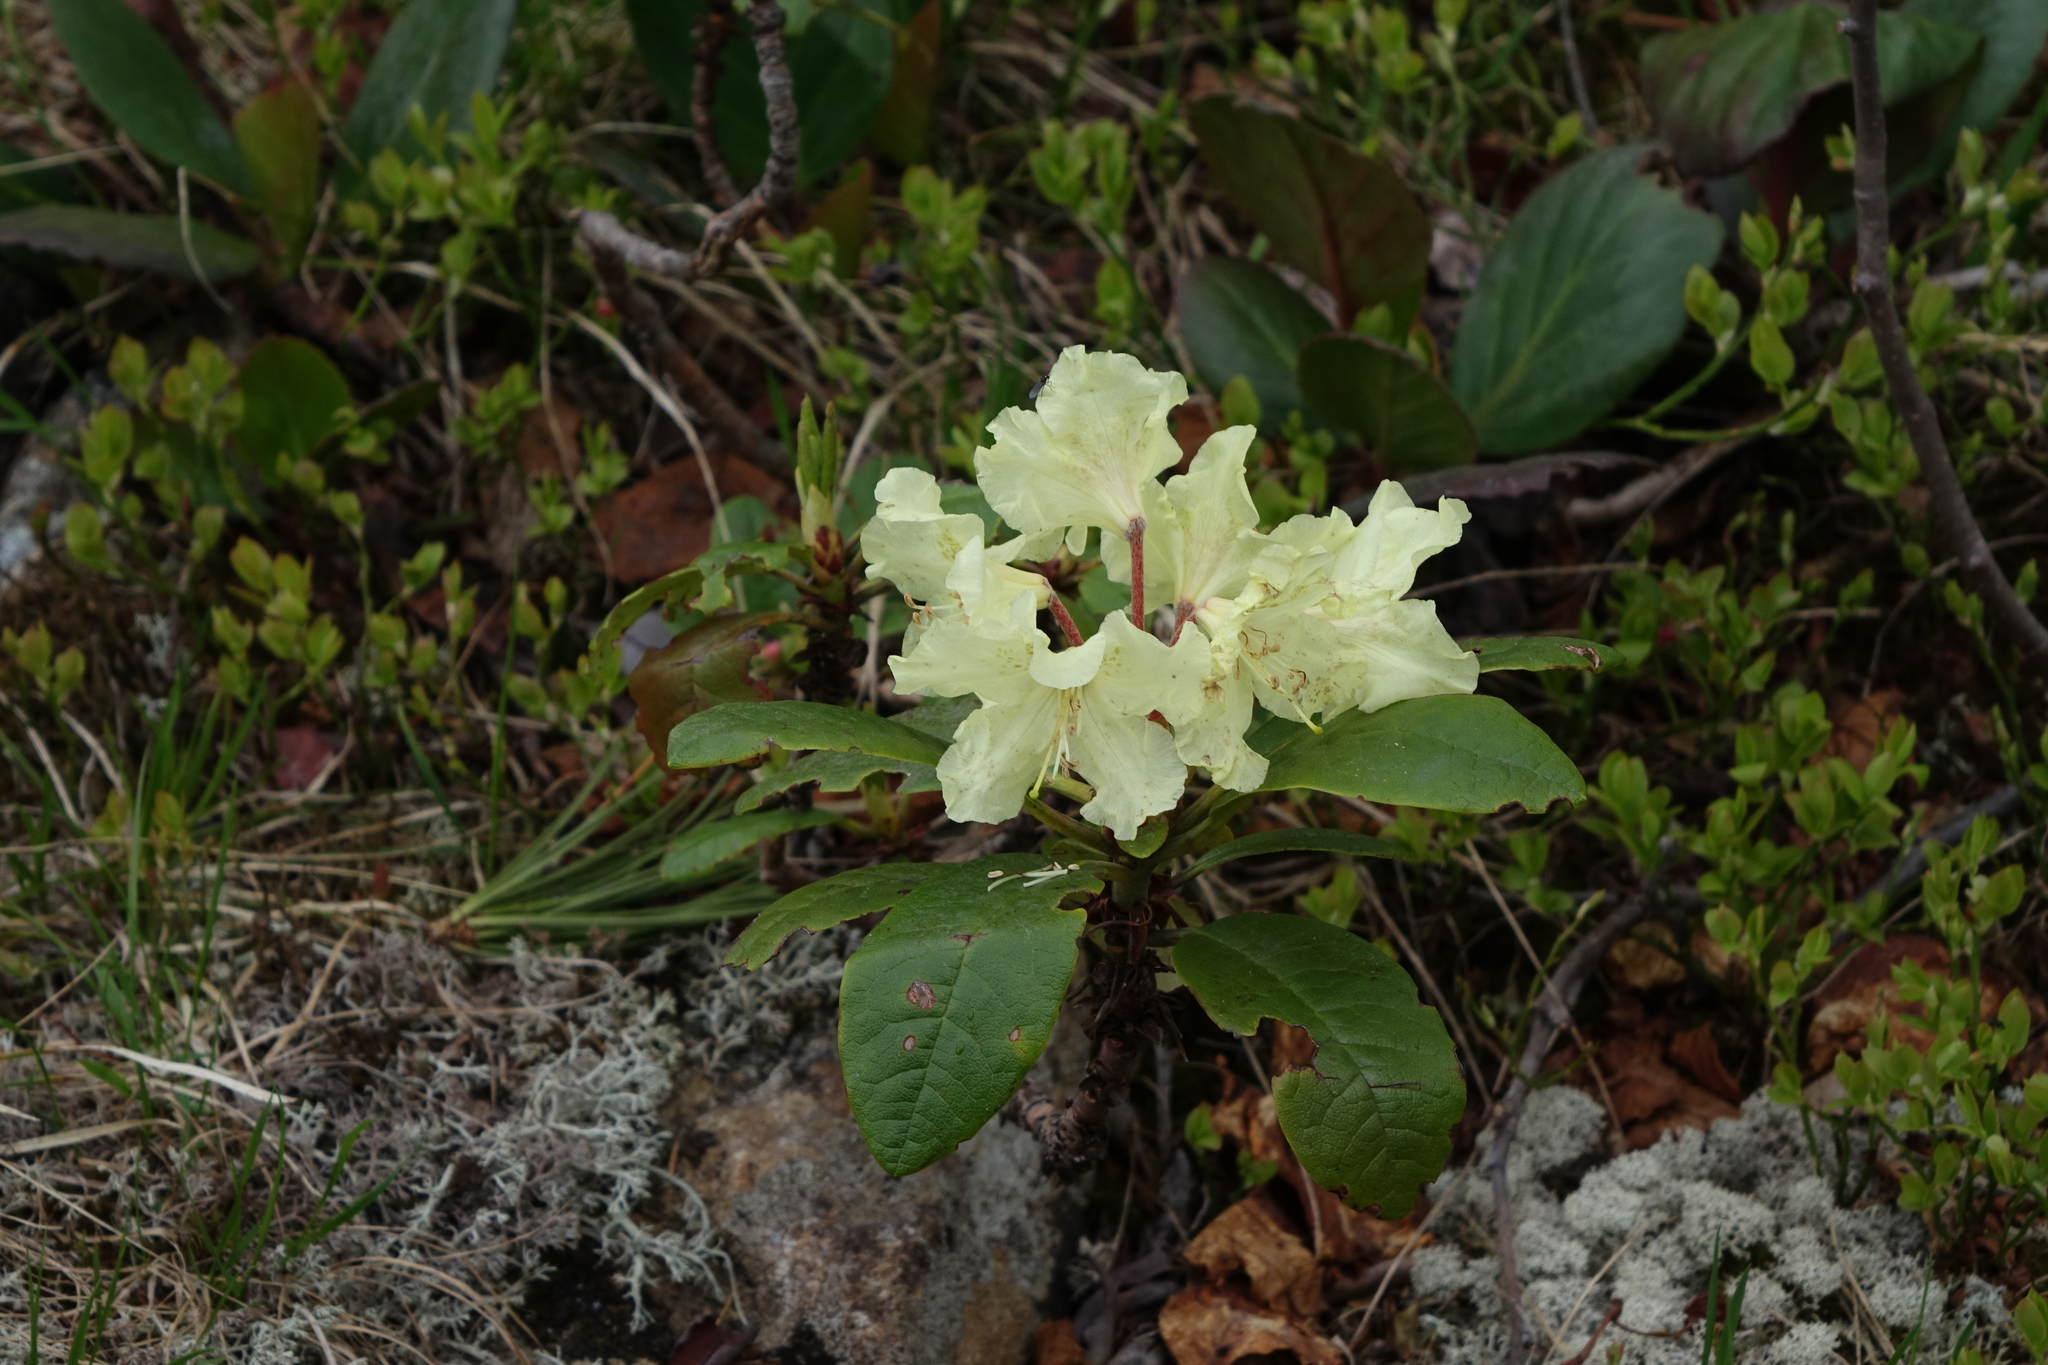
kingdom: Plantae
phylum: Tracheophyta
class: Magnoliopsida
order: Ericales
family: Ericaceae
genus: Rhododendron
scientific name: Rhododendron aureum
